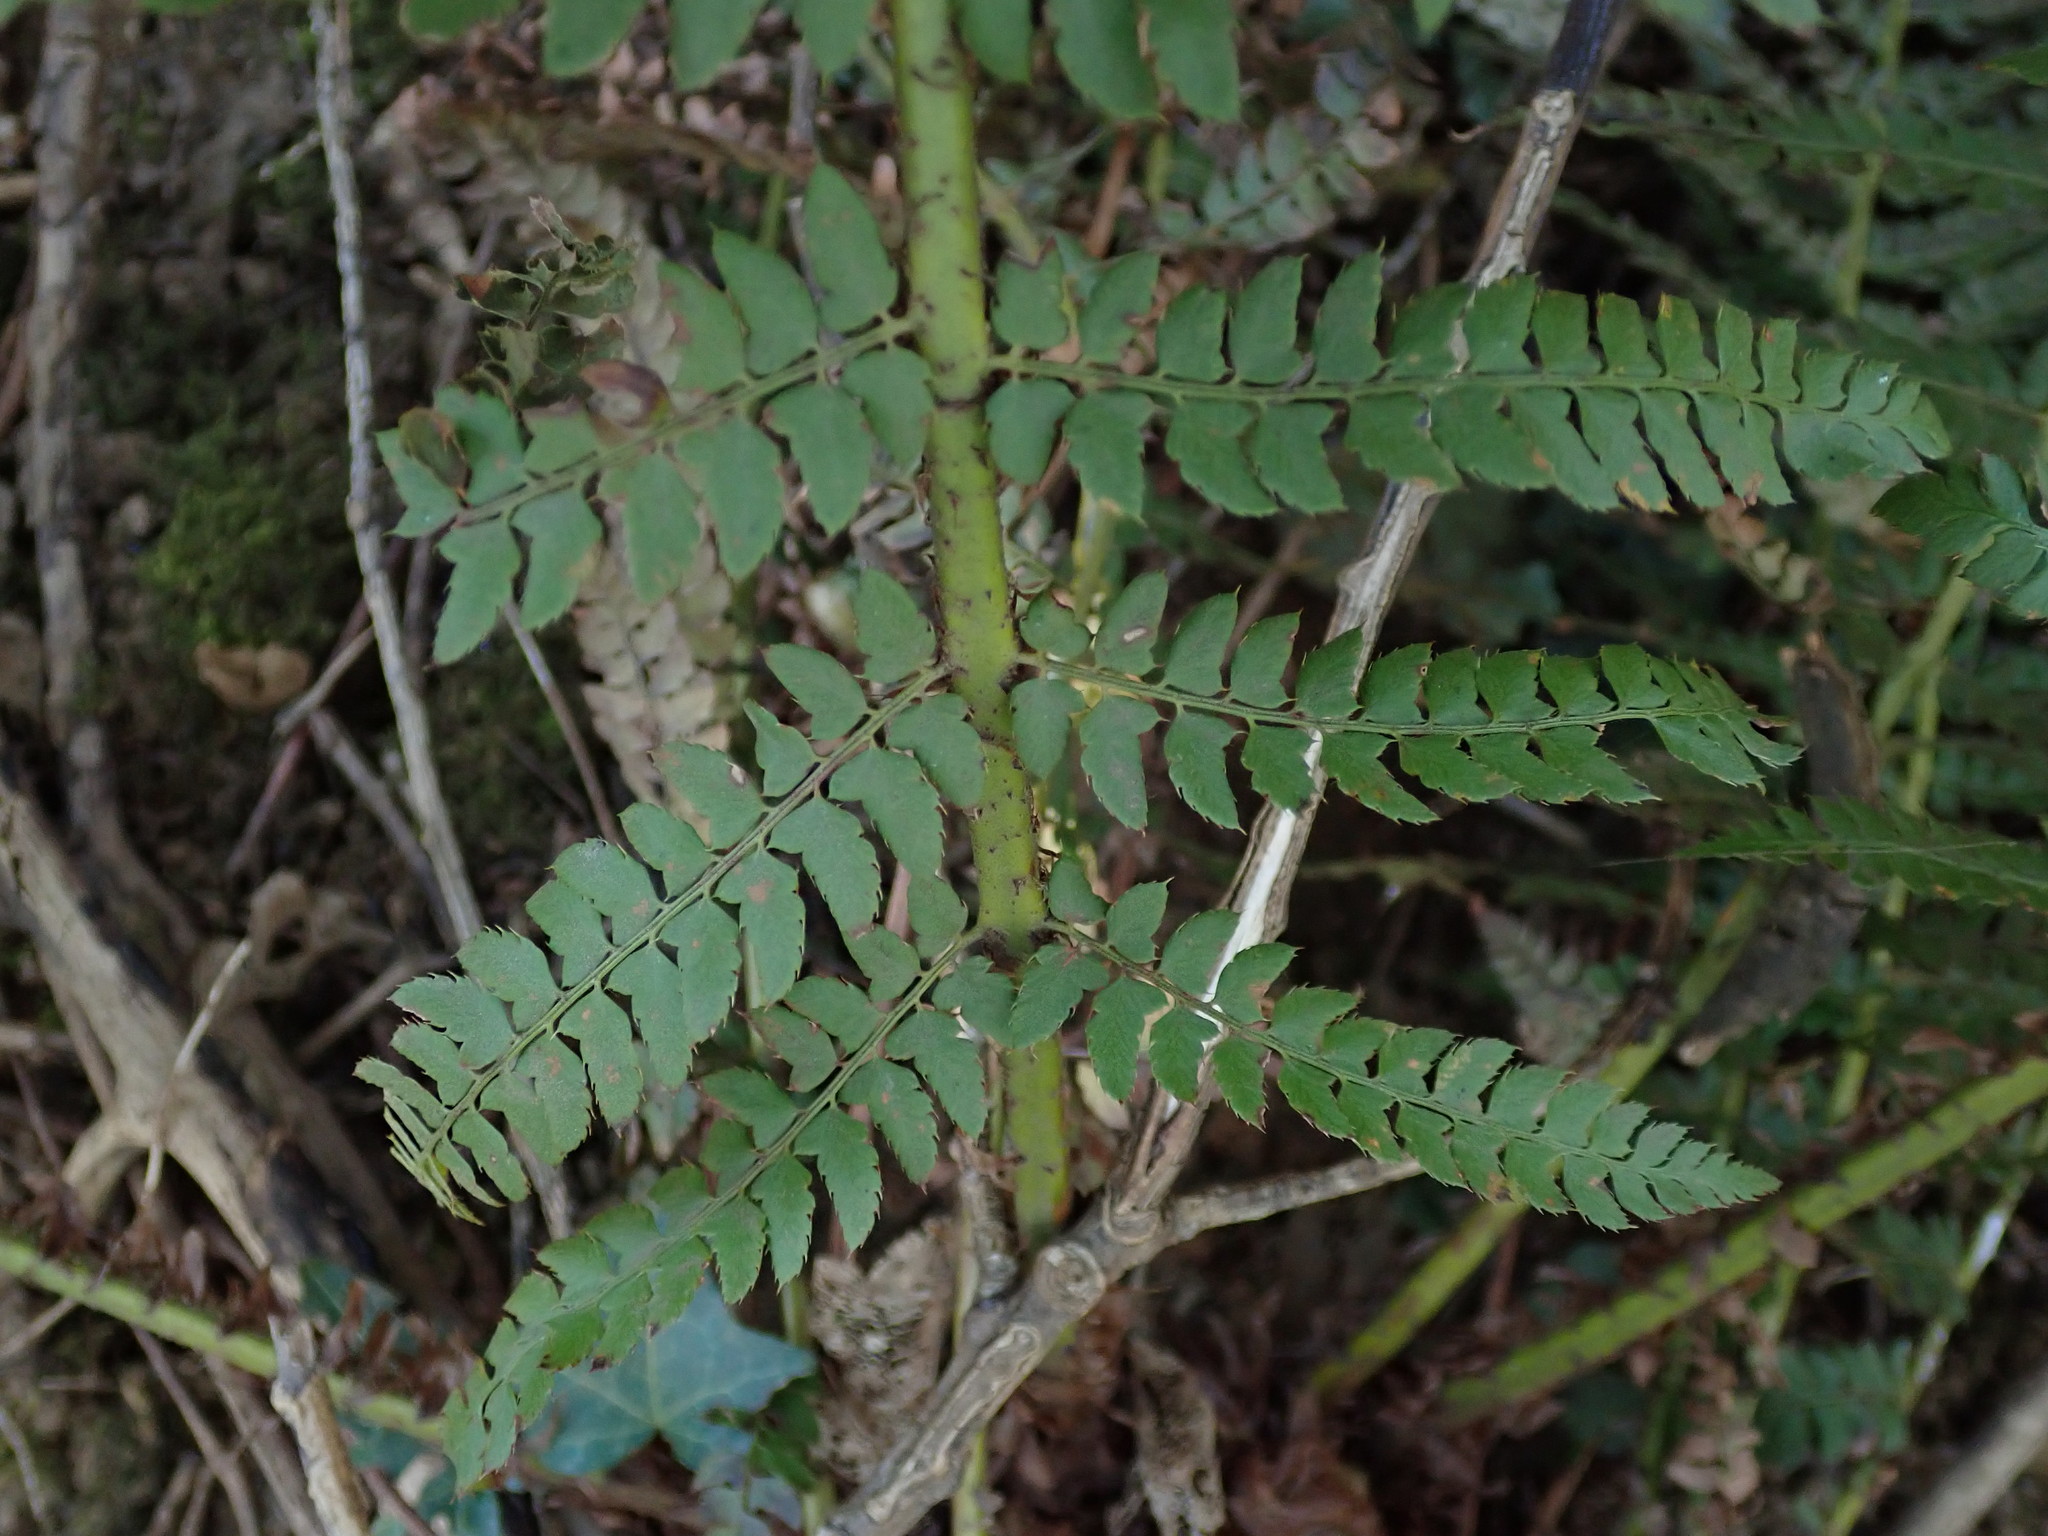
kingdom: Plantae
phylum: Tracheophyta
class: Polypodiopsida
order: Polypodiales
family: Dryopteridaceae
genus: Polystichum
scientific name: Polystichum setiferum
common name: Soft shield-fern
